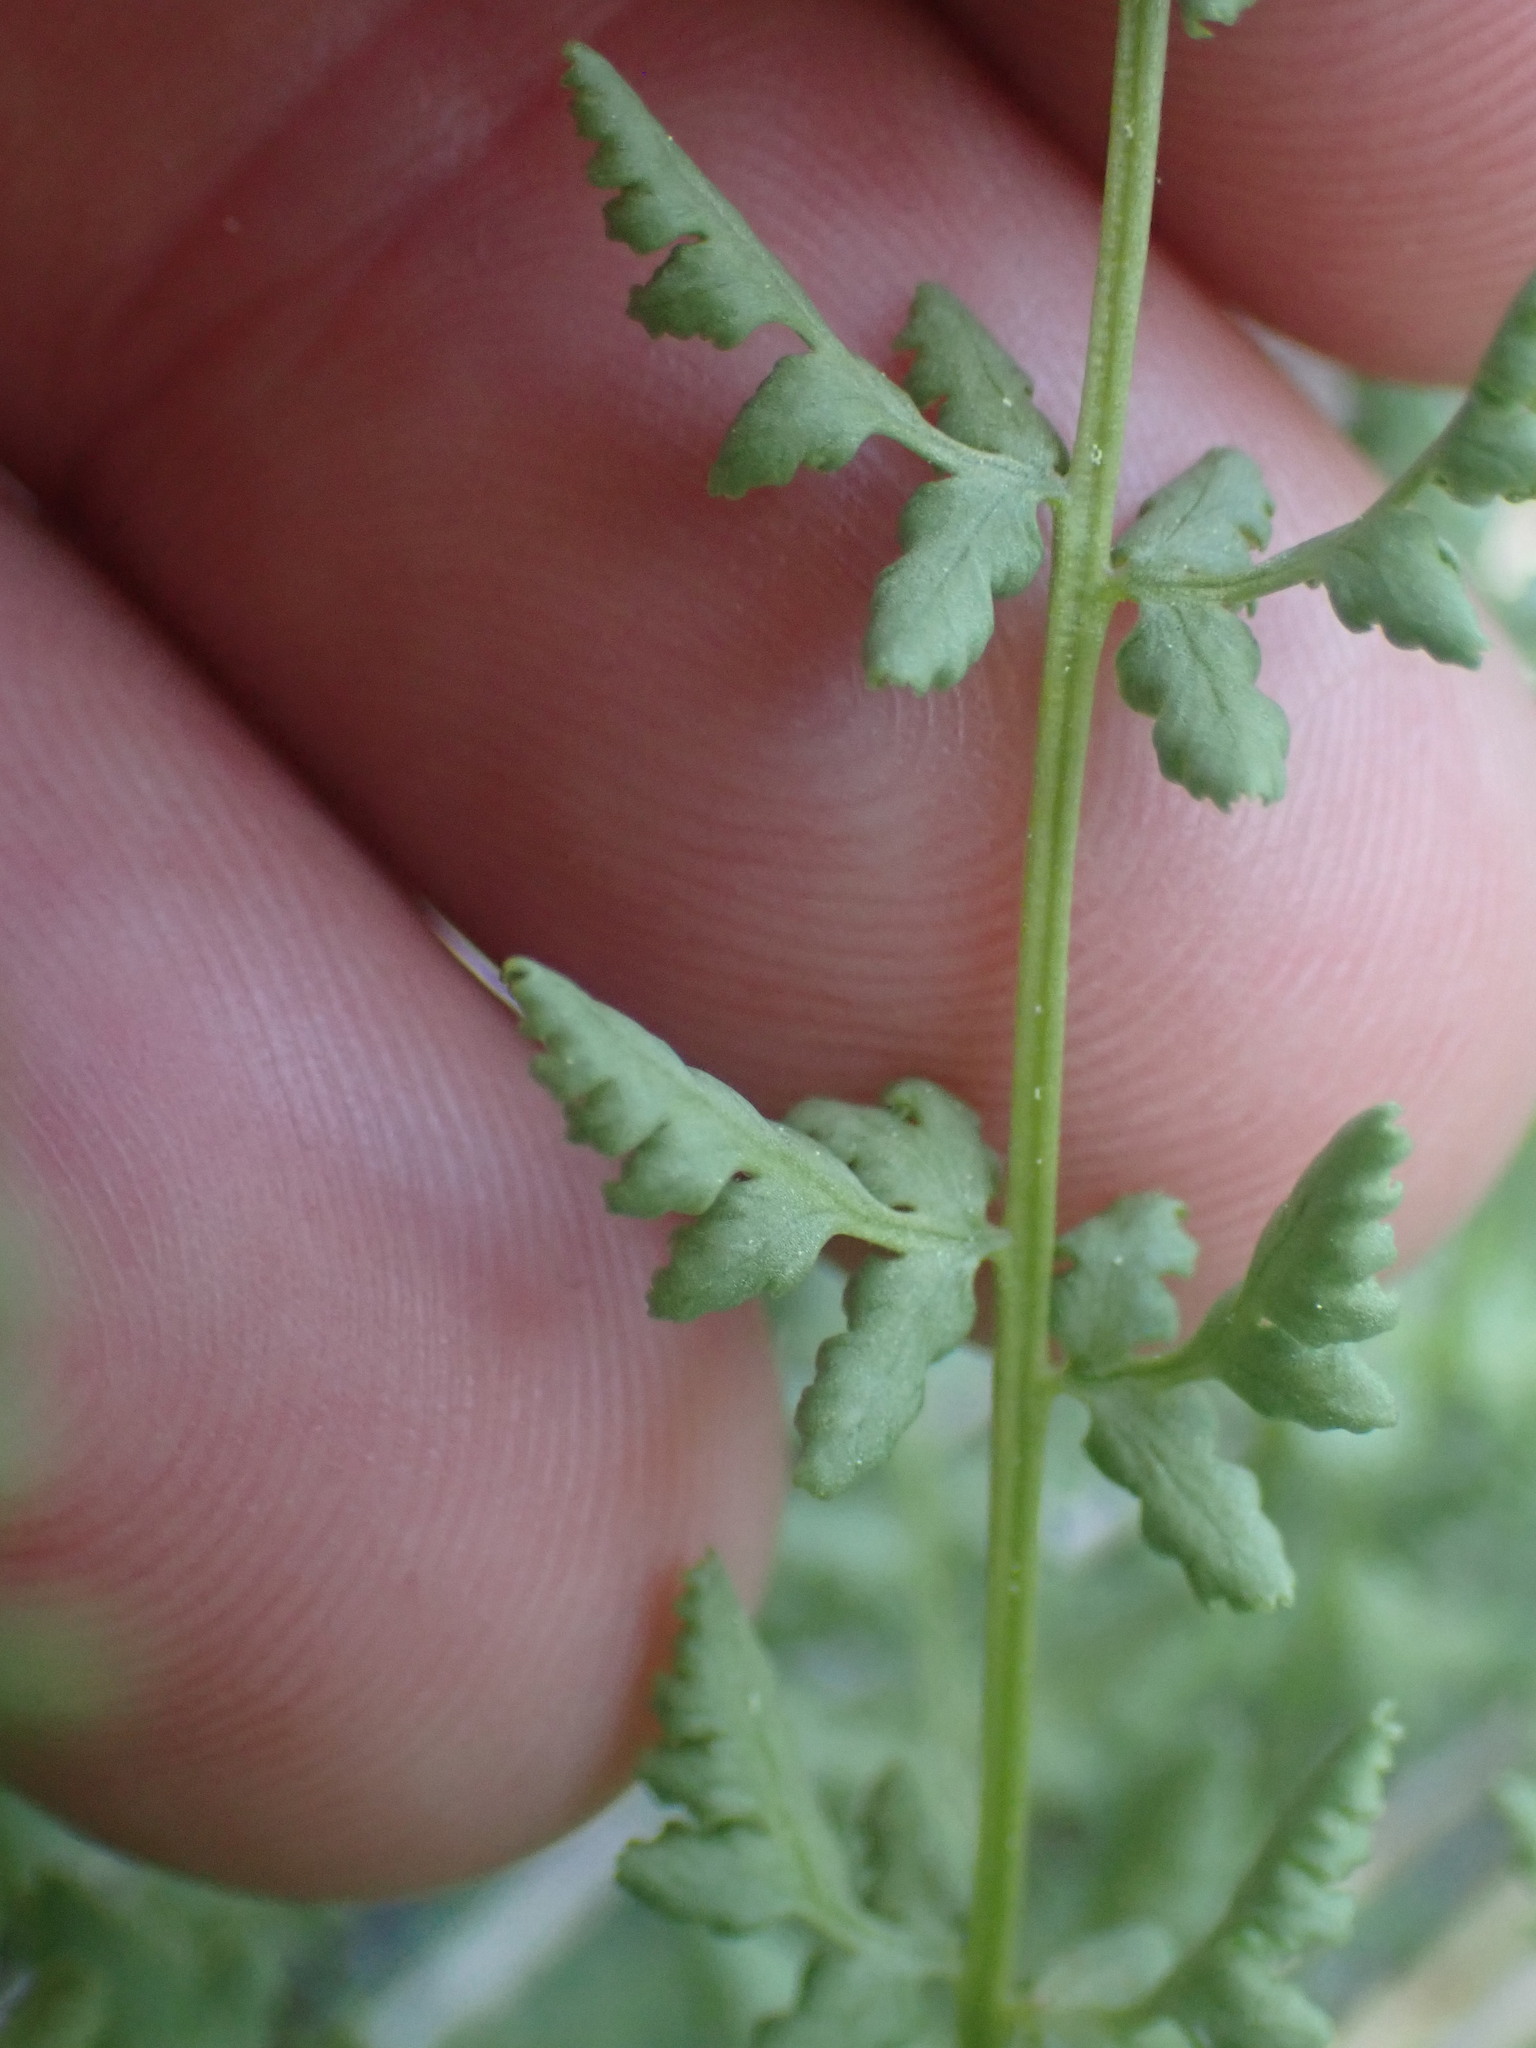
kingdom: Plantae
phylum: Tracheophyta
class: Polypodiopsida
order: Polypodiales
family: Woodsiaceae
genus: Physematium
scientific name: Physematium oreganum
